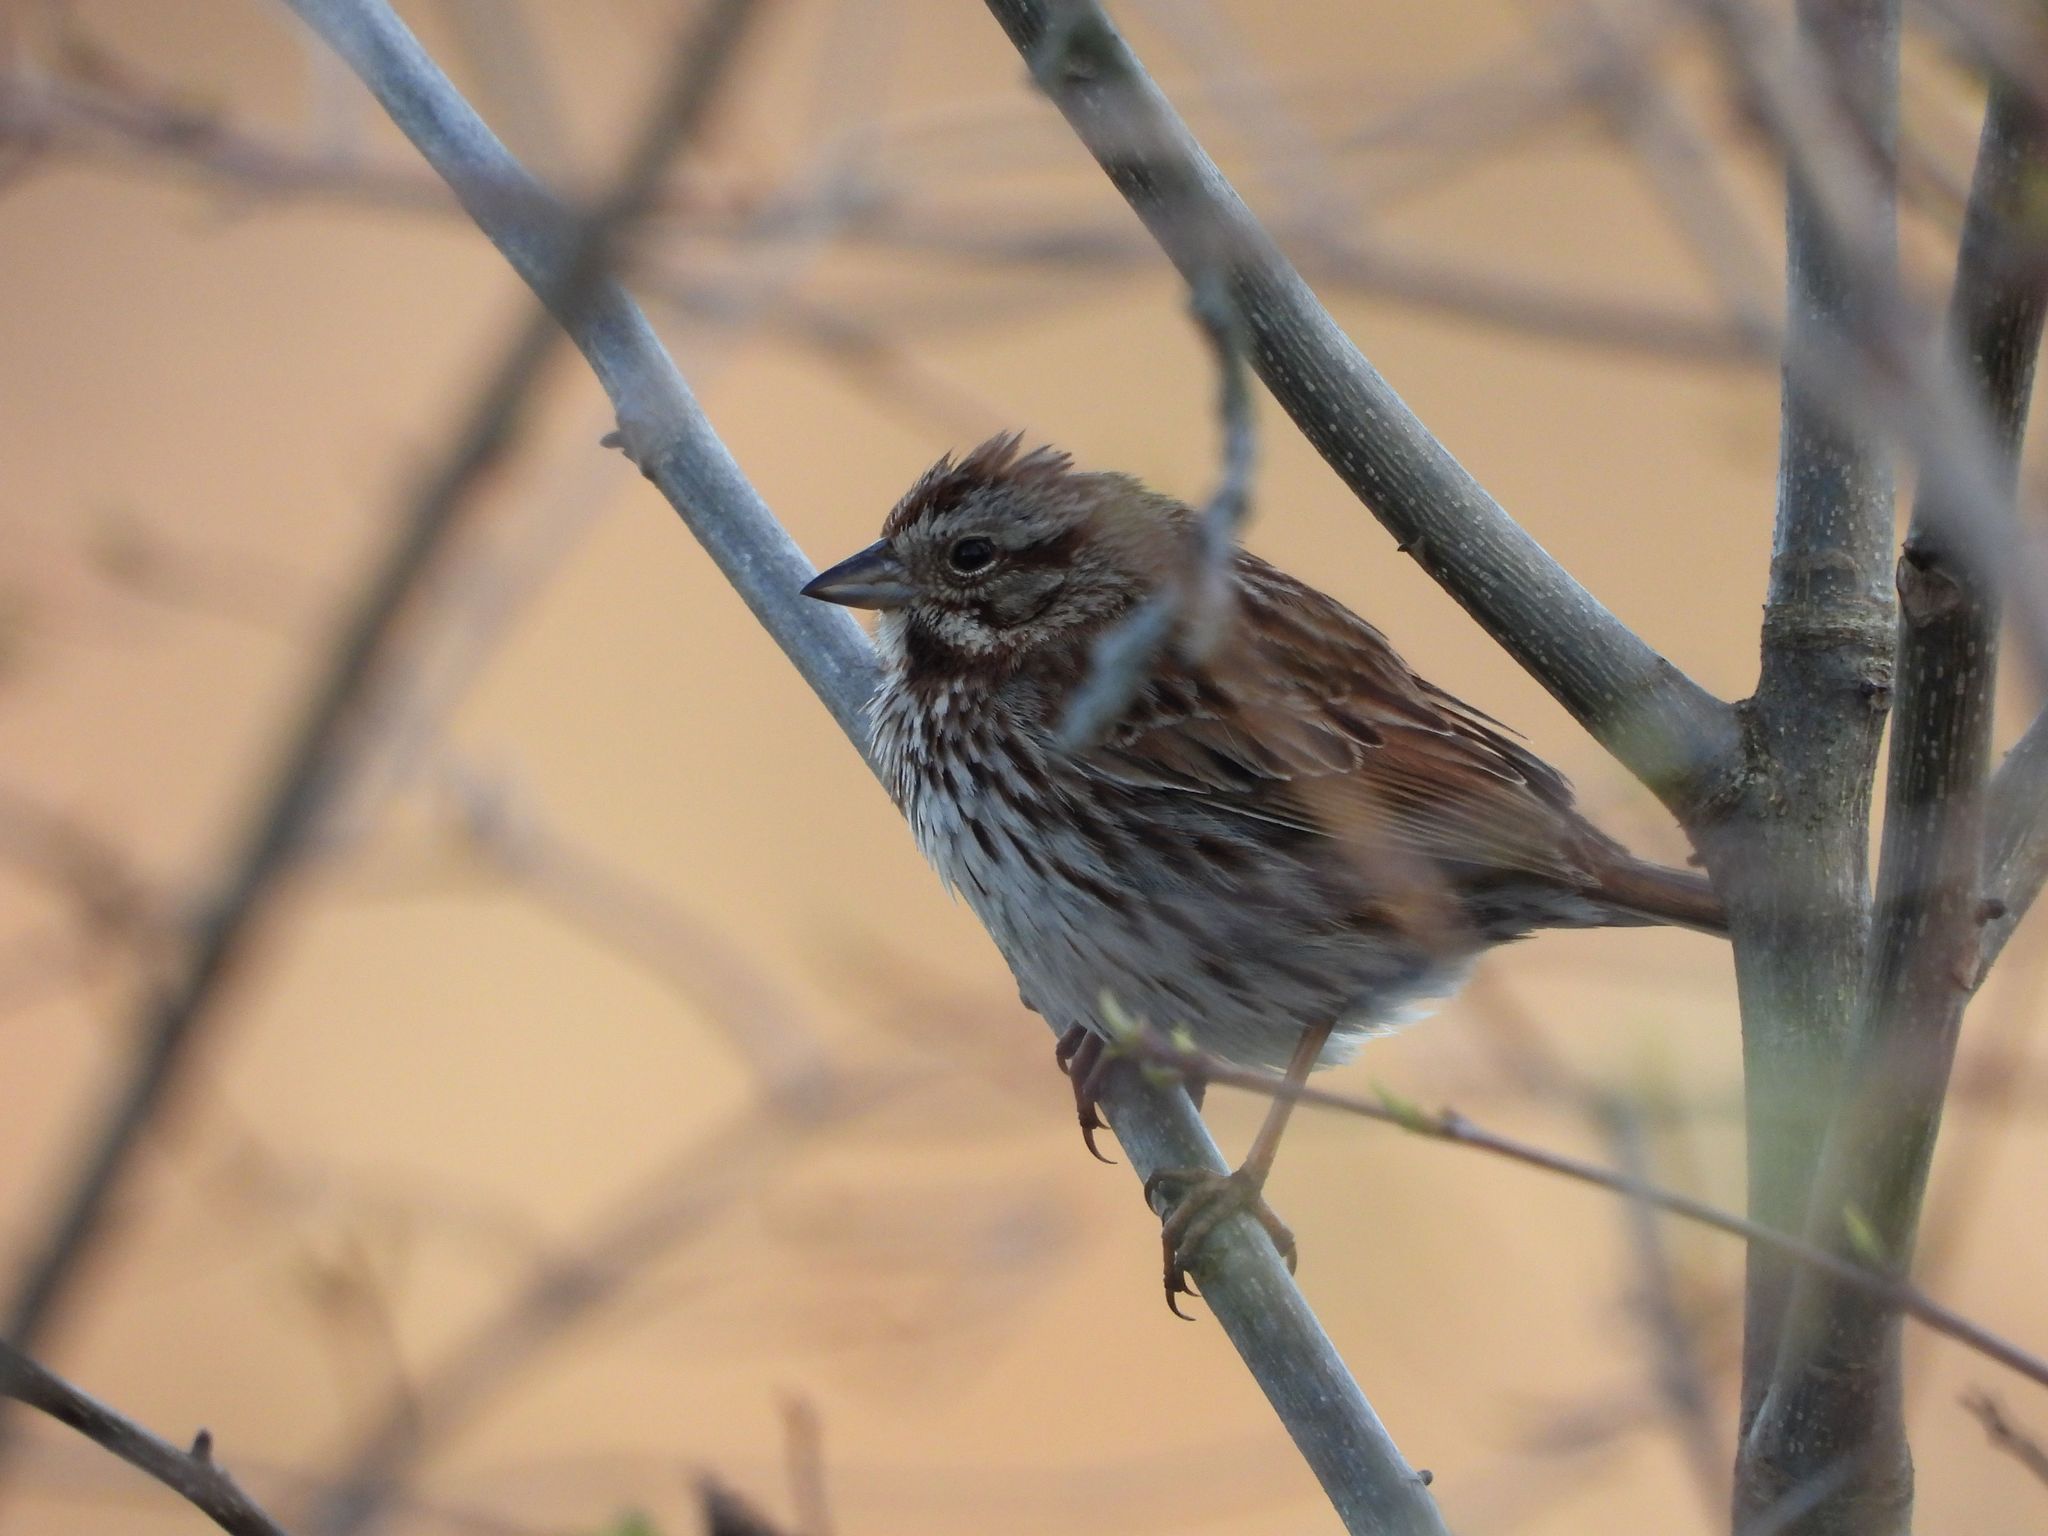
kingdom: Animalia
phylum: Chordata
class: Aves
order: Passeriformes
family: Passerellidae
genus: Melospiza
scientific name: Melospiza melodia
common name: Song sparrow
